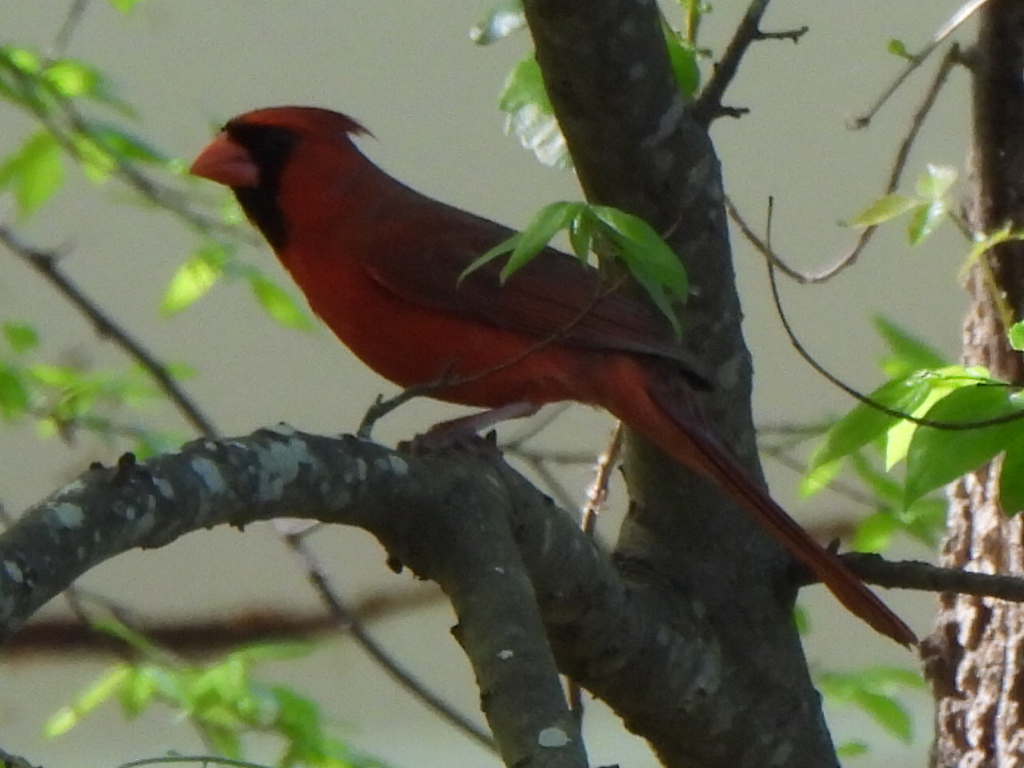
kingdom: Animalia
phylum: Chordata
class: Aves
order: Passeriformes
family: Cardinalidae
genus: Cardinalis
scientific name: Cardinalis cardinalis
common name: Northern cardinal
